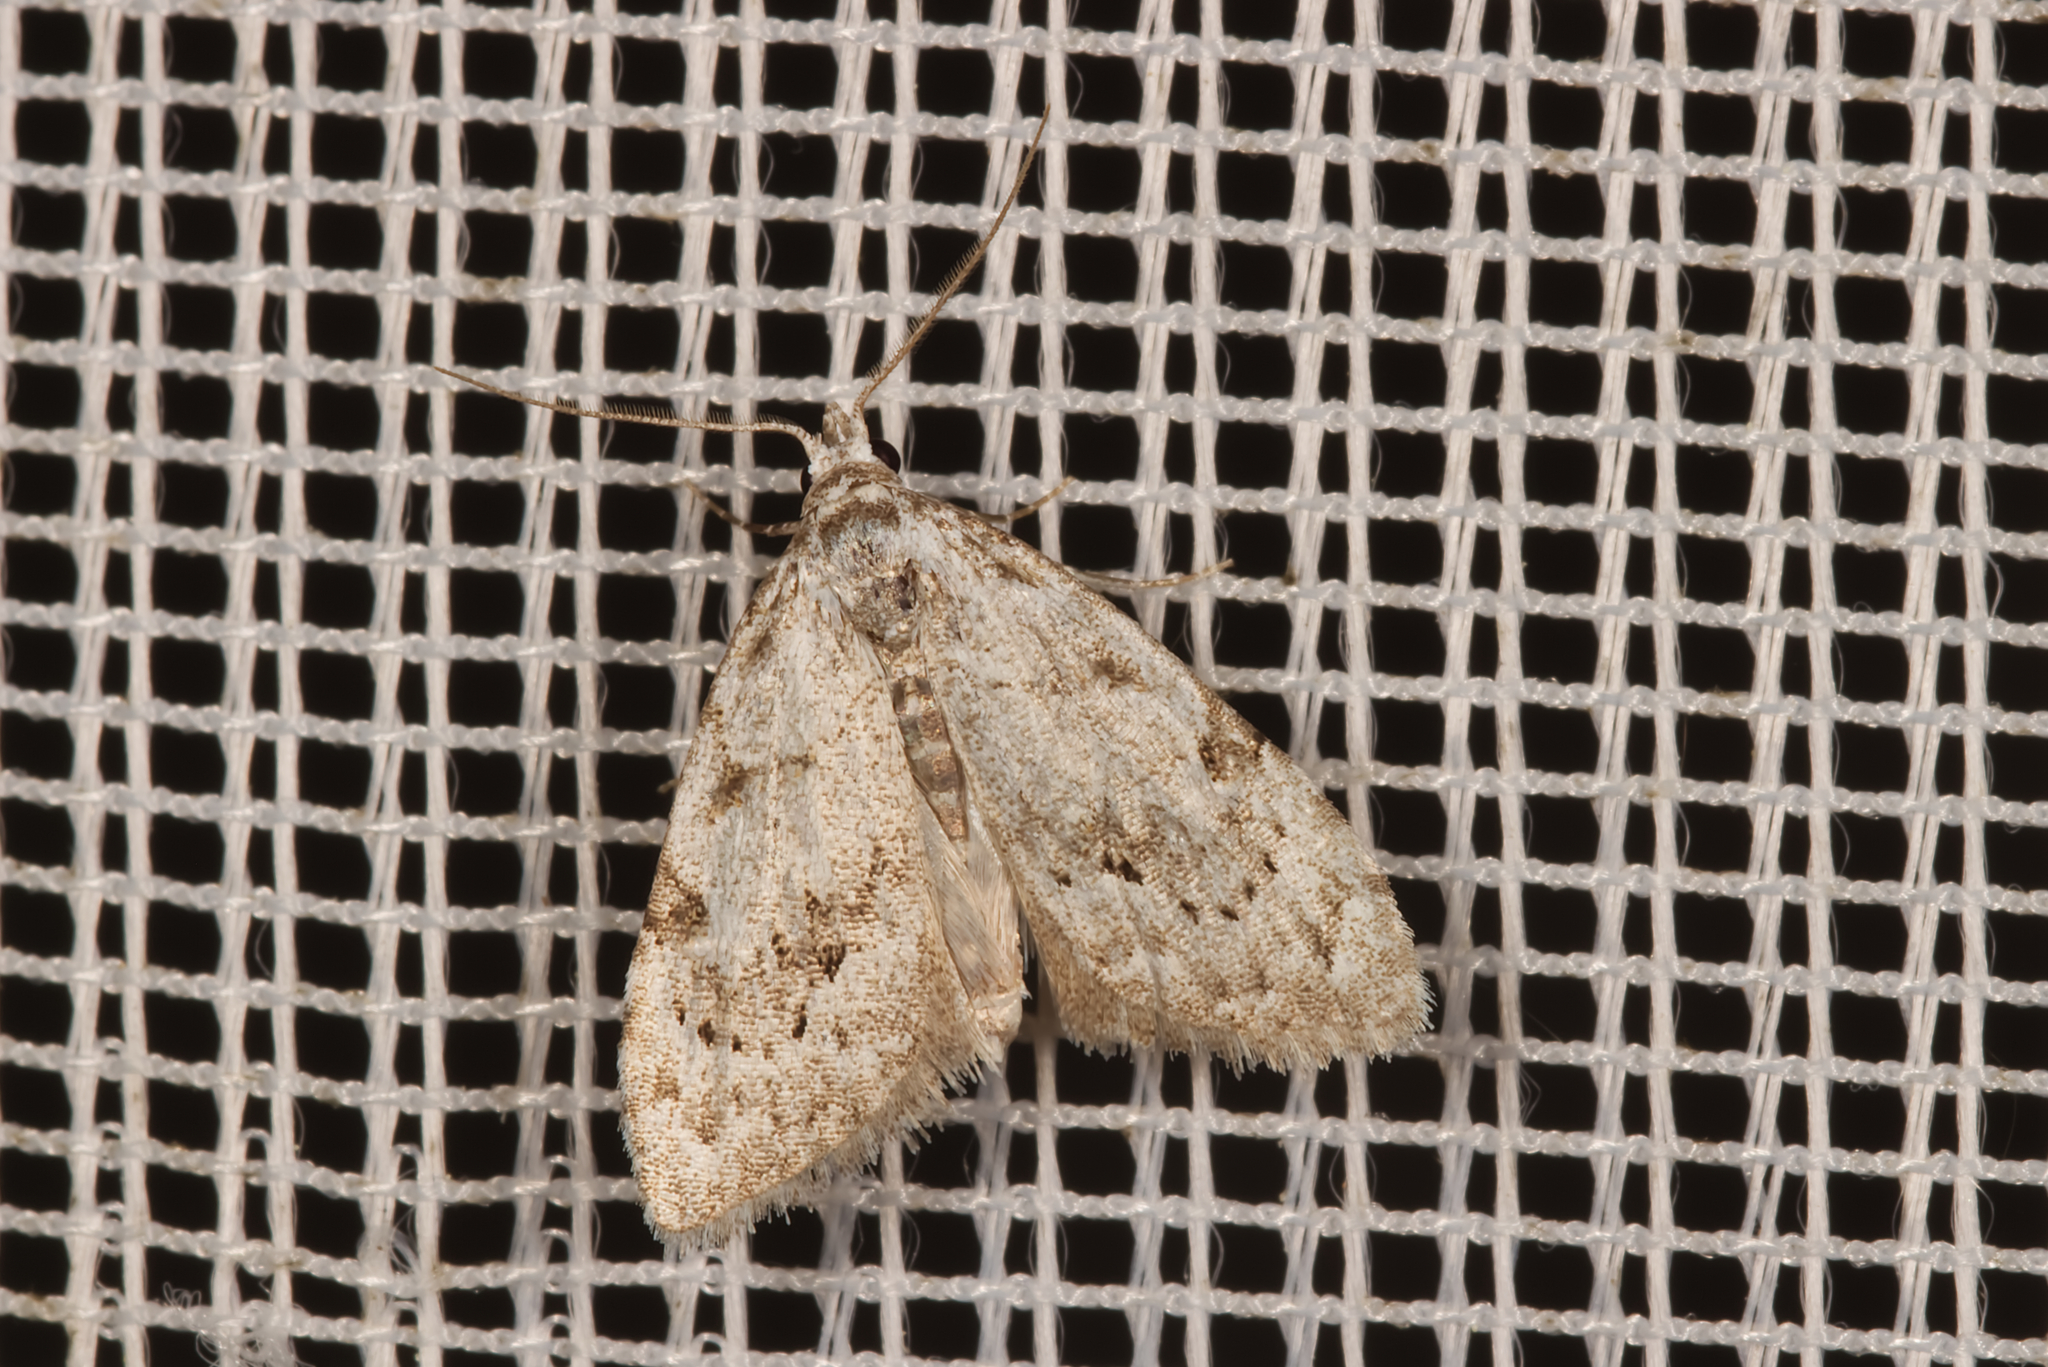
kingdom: Animalia
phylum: Arthropoda
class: Insecta
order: Lepidoptera
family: Nolidae
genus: Nola
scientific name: Nola confusalis
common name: Least black arches
